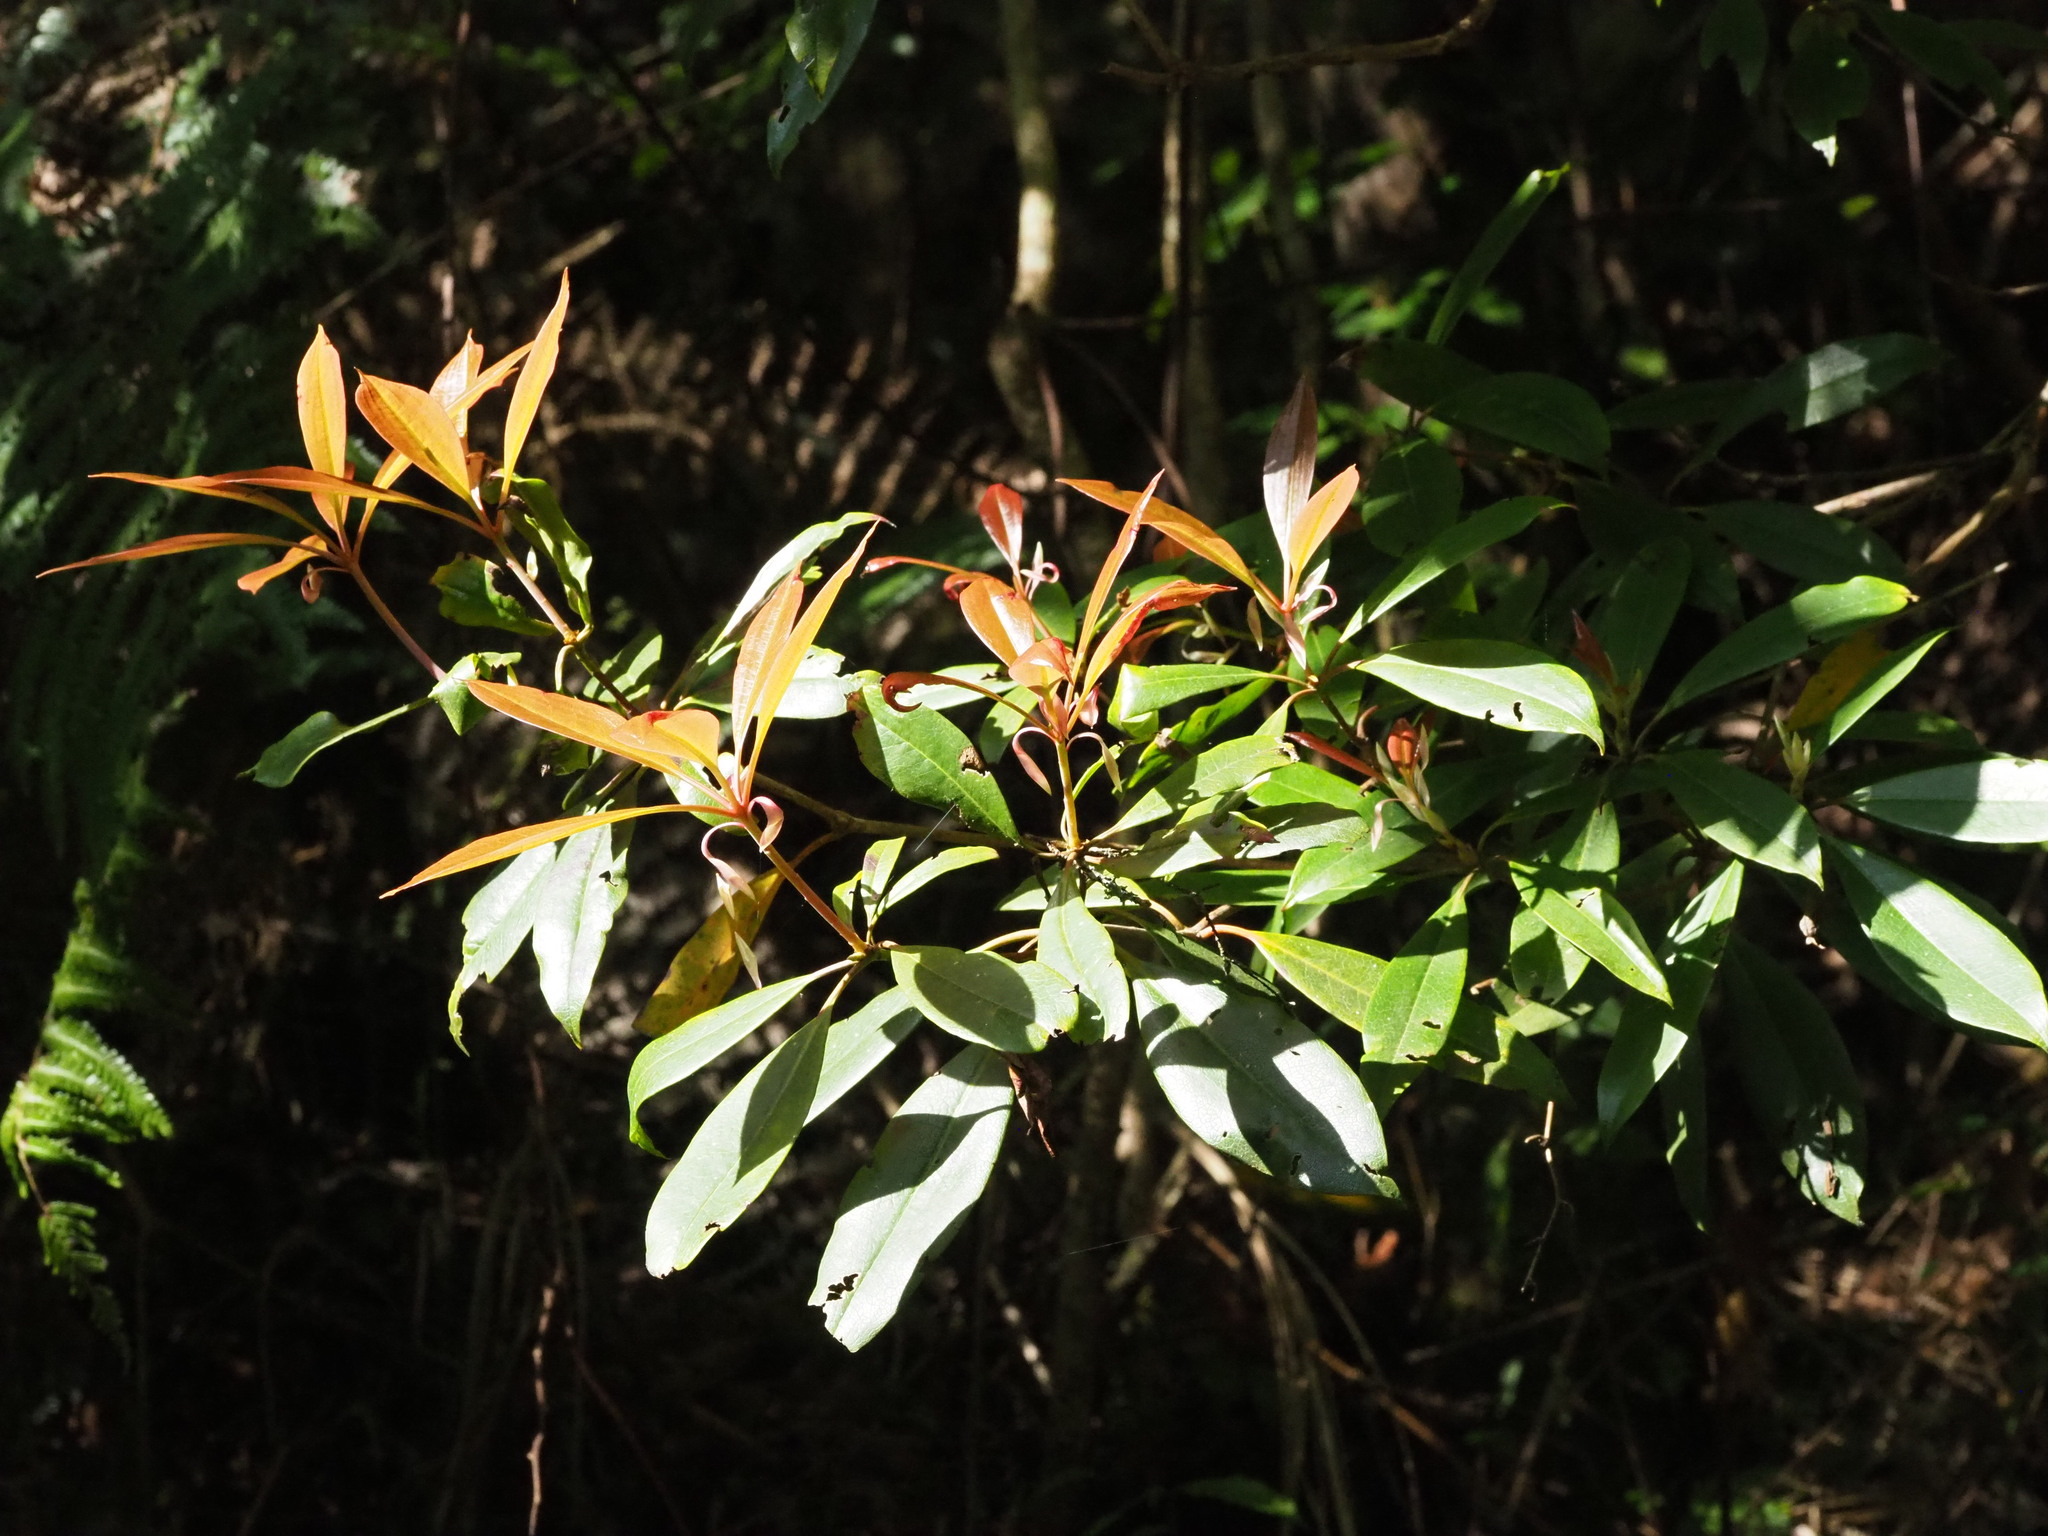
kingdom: Plantae
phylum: Tracheophyta
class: Magnoliopsida
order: Ericales
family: Ericaceae
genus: Rhododendron
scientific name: Rhododendron latoucheae
